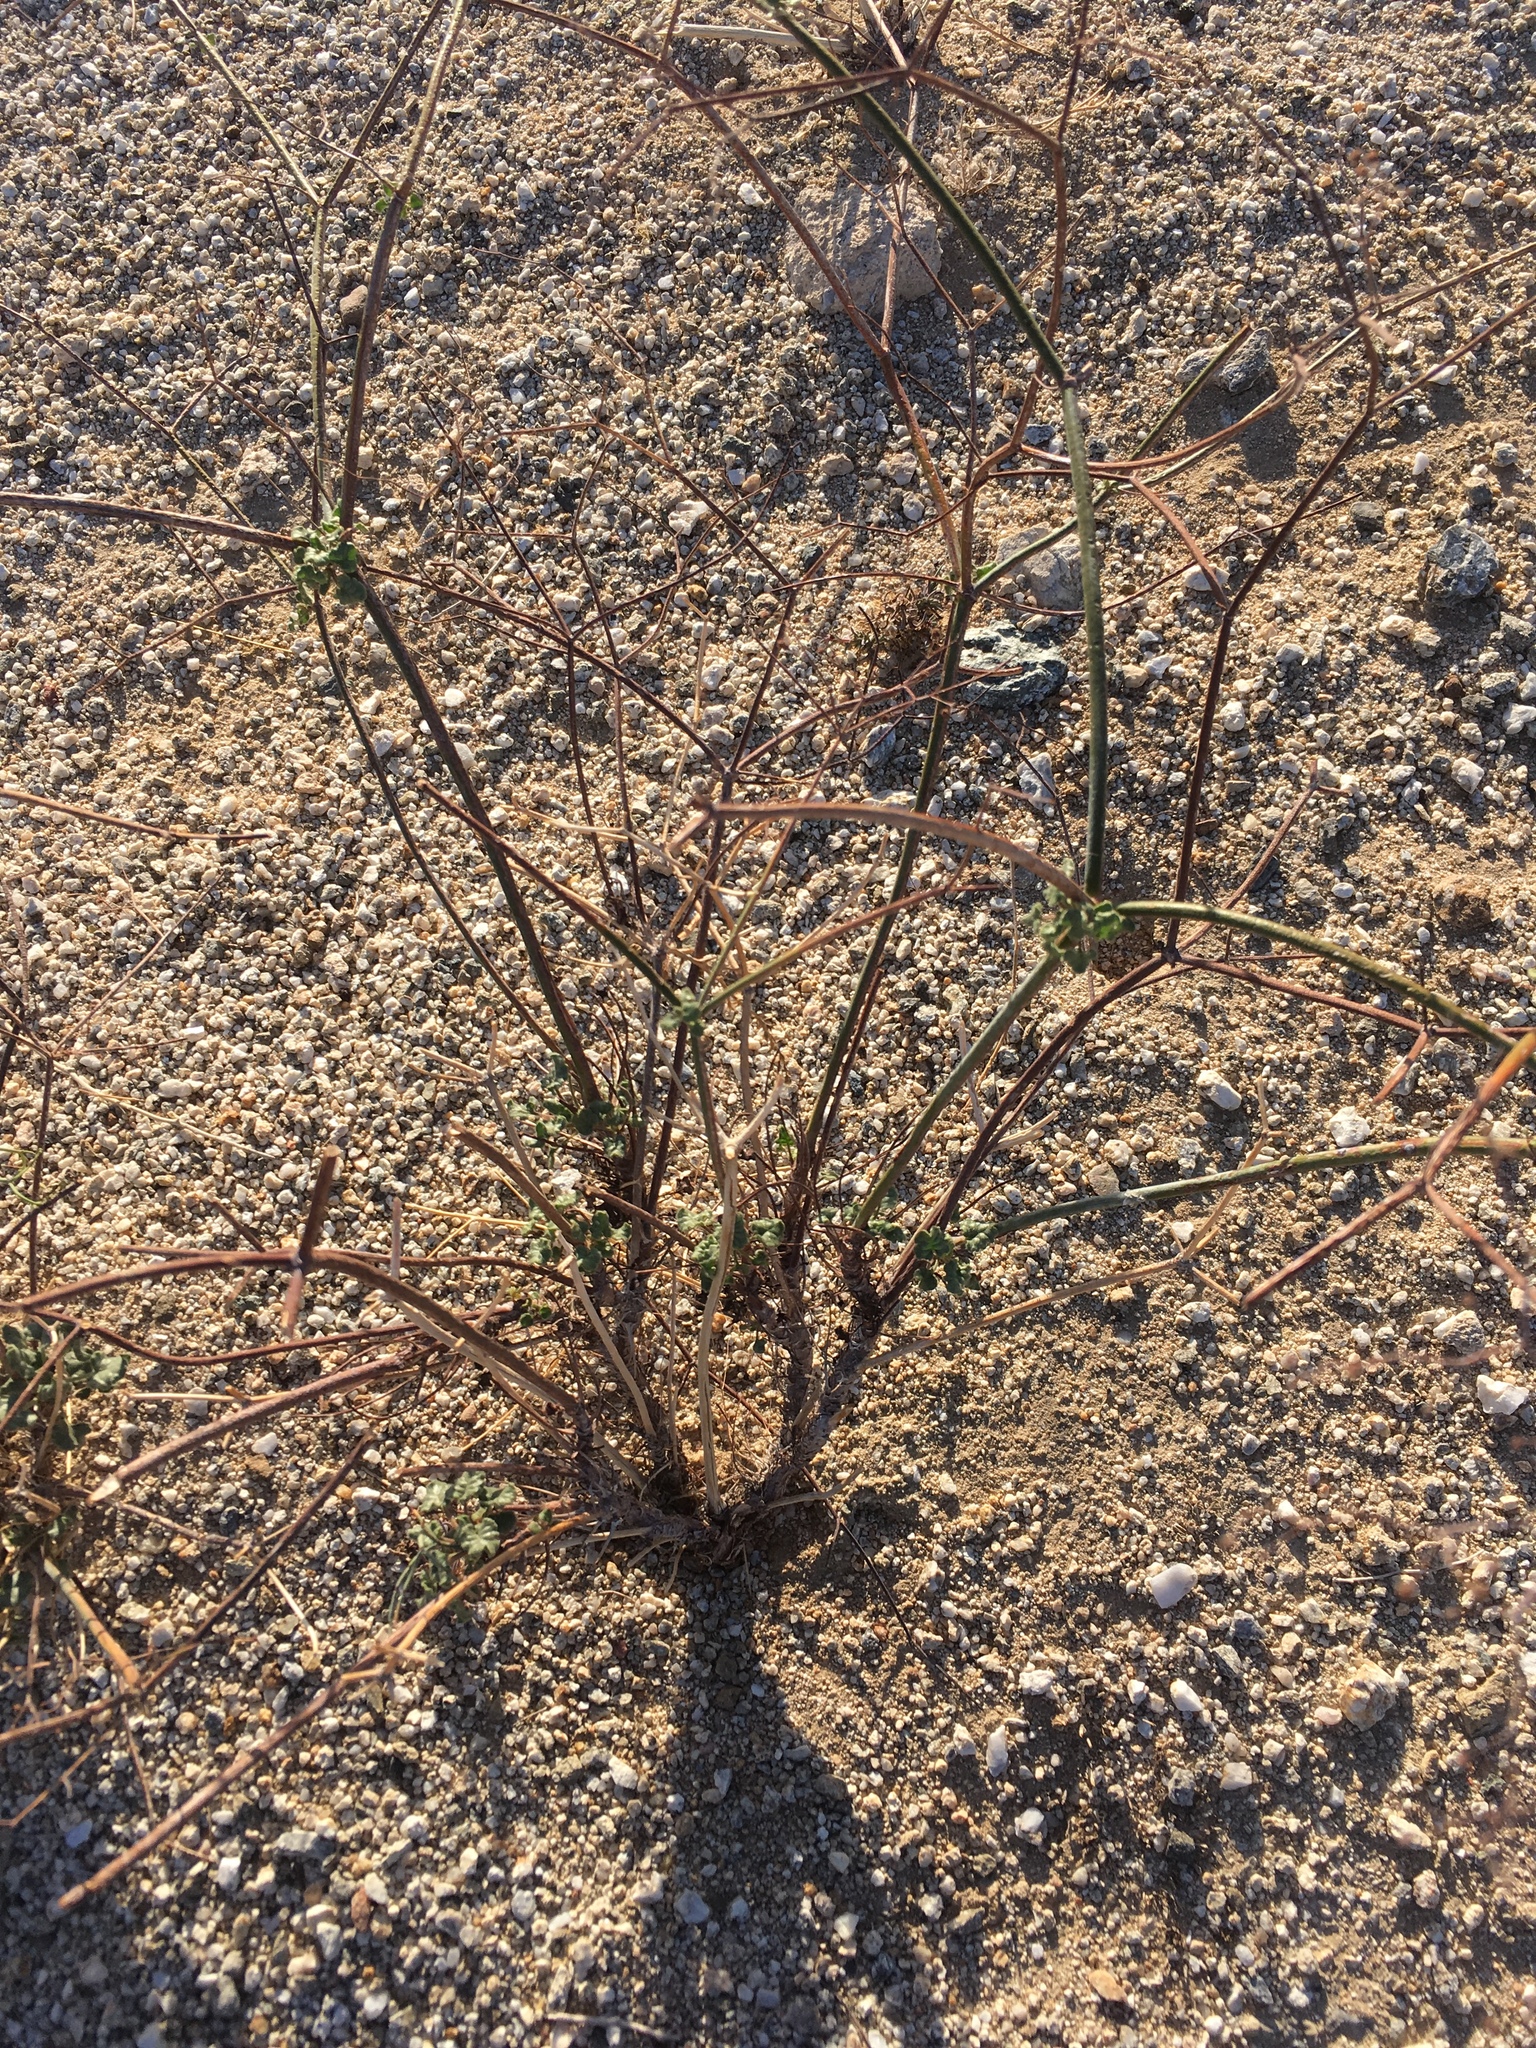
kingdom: Plantae
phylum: Tracheophyta
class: Magnoliopsida
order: Caryophyllales
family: Polygonaceae
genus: Eriogonum
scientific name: Eriogonum inflatum
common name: Desert trumpet
